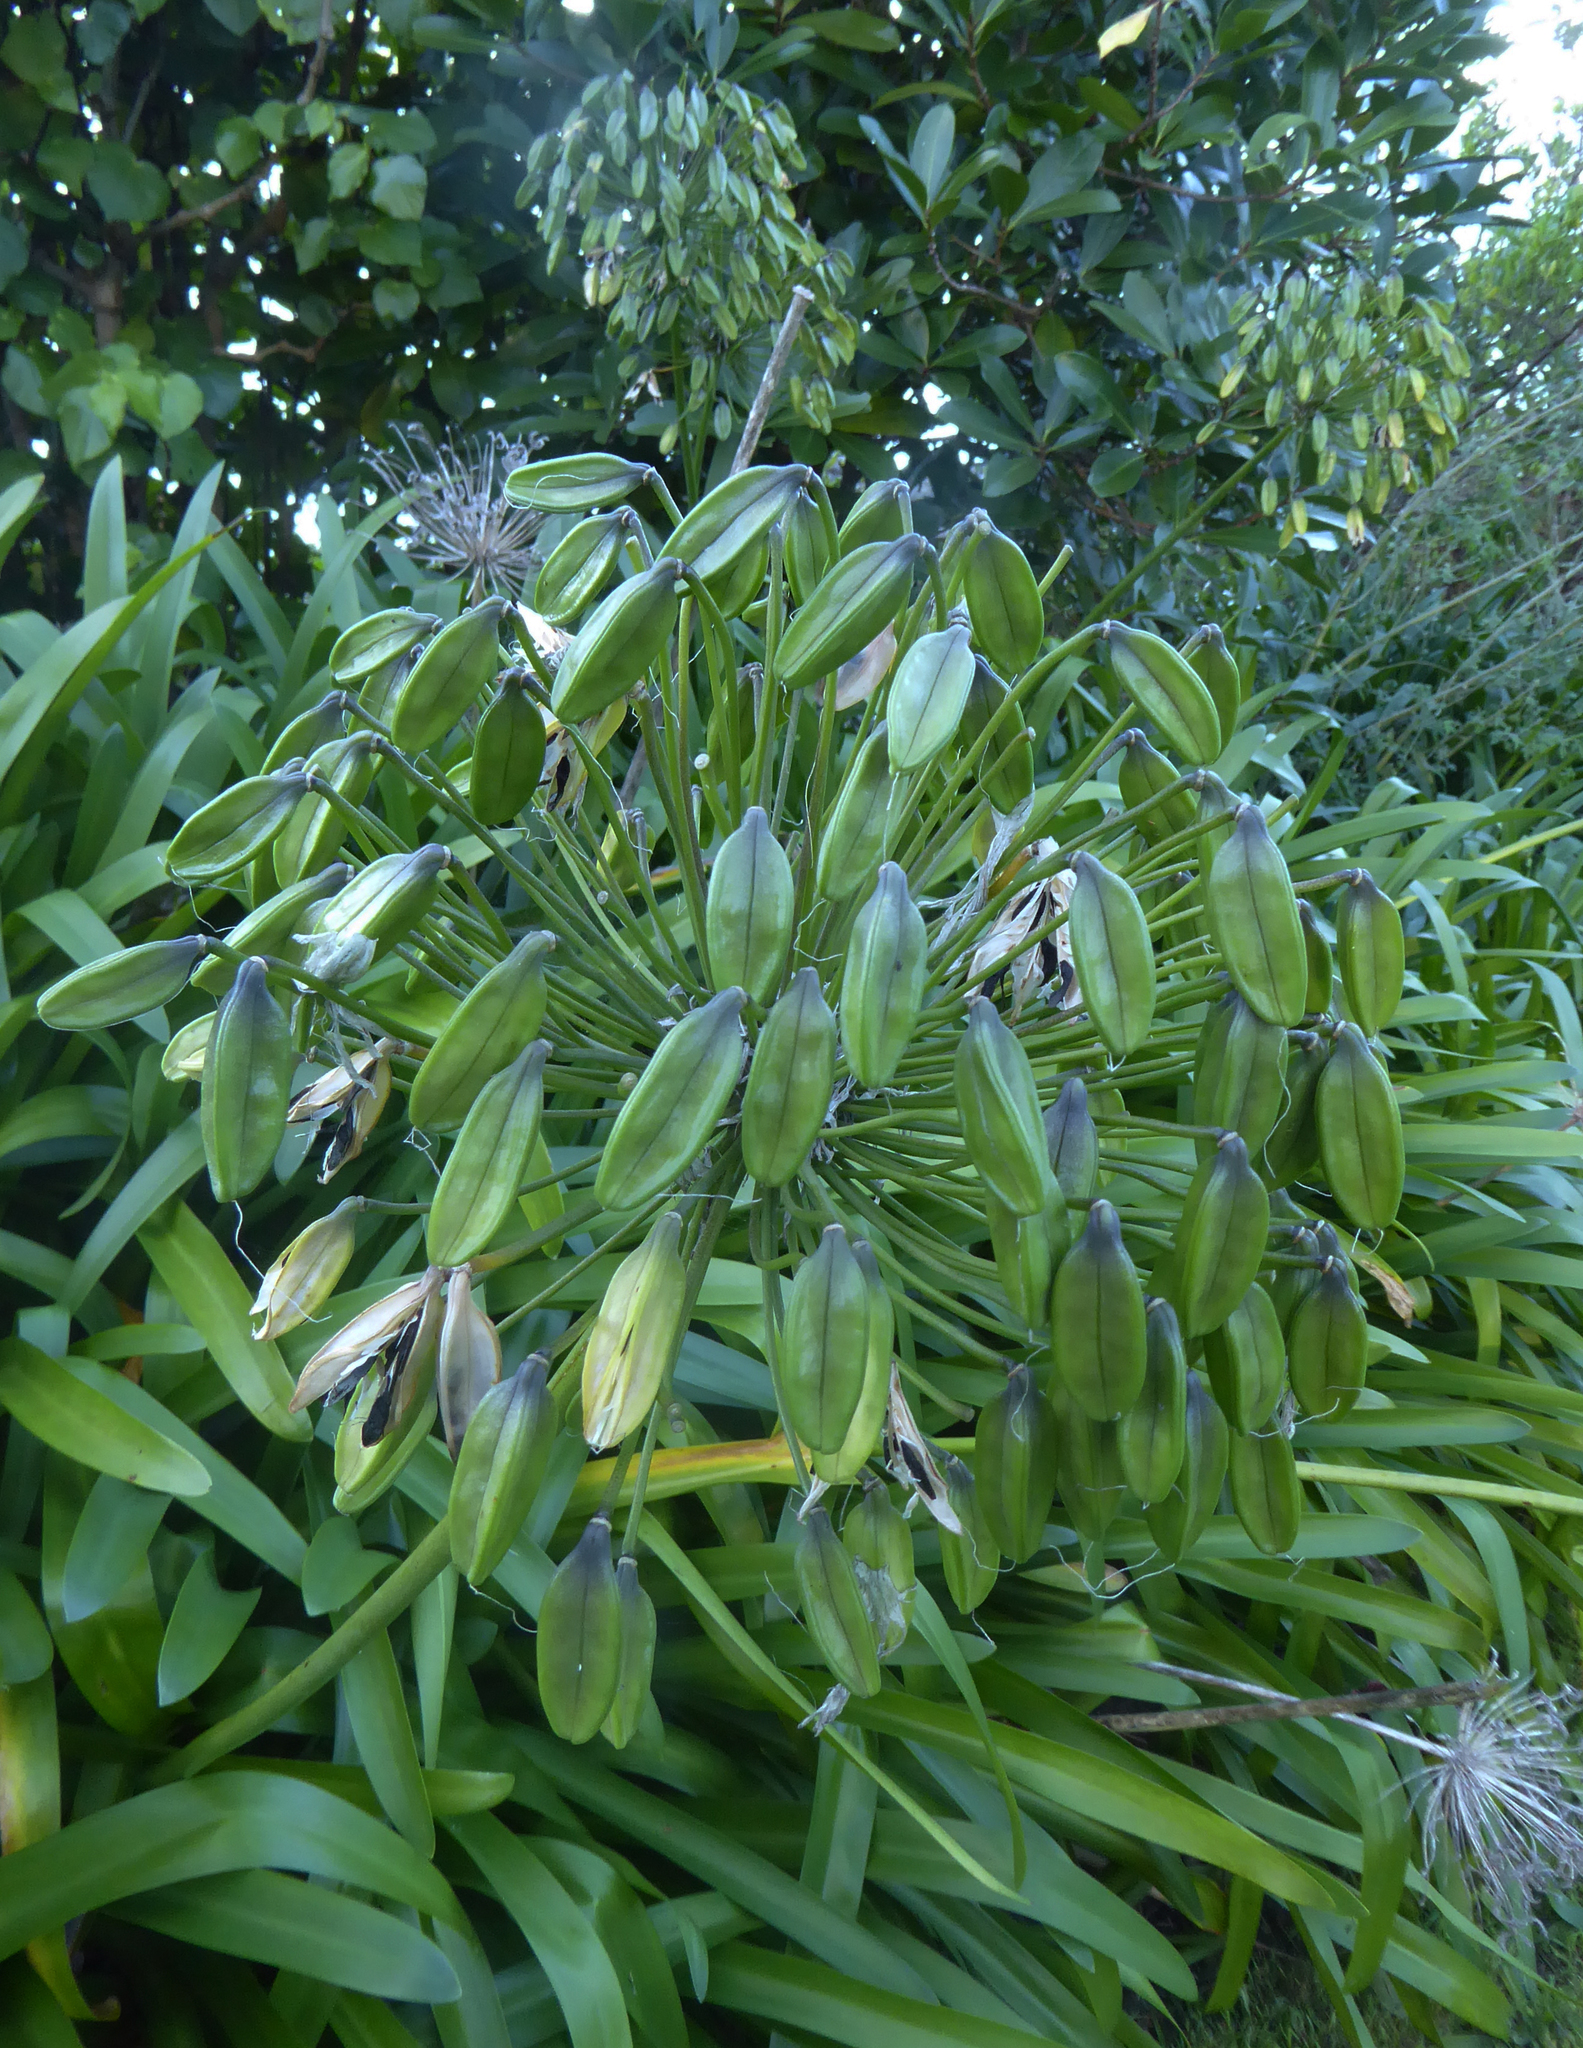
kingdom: Plantae
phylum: Tracheophyta
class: Liliopsida
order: Asparagales
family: Amaryllidaceae
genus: Agapanthus
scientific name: Agapanthus praecox
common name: African-lily
